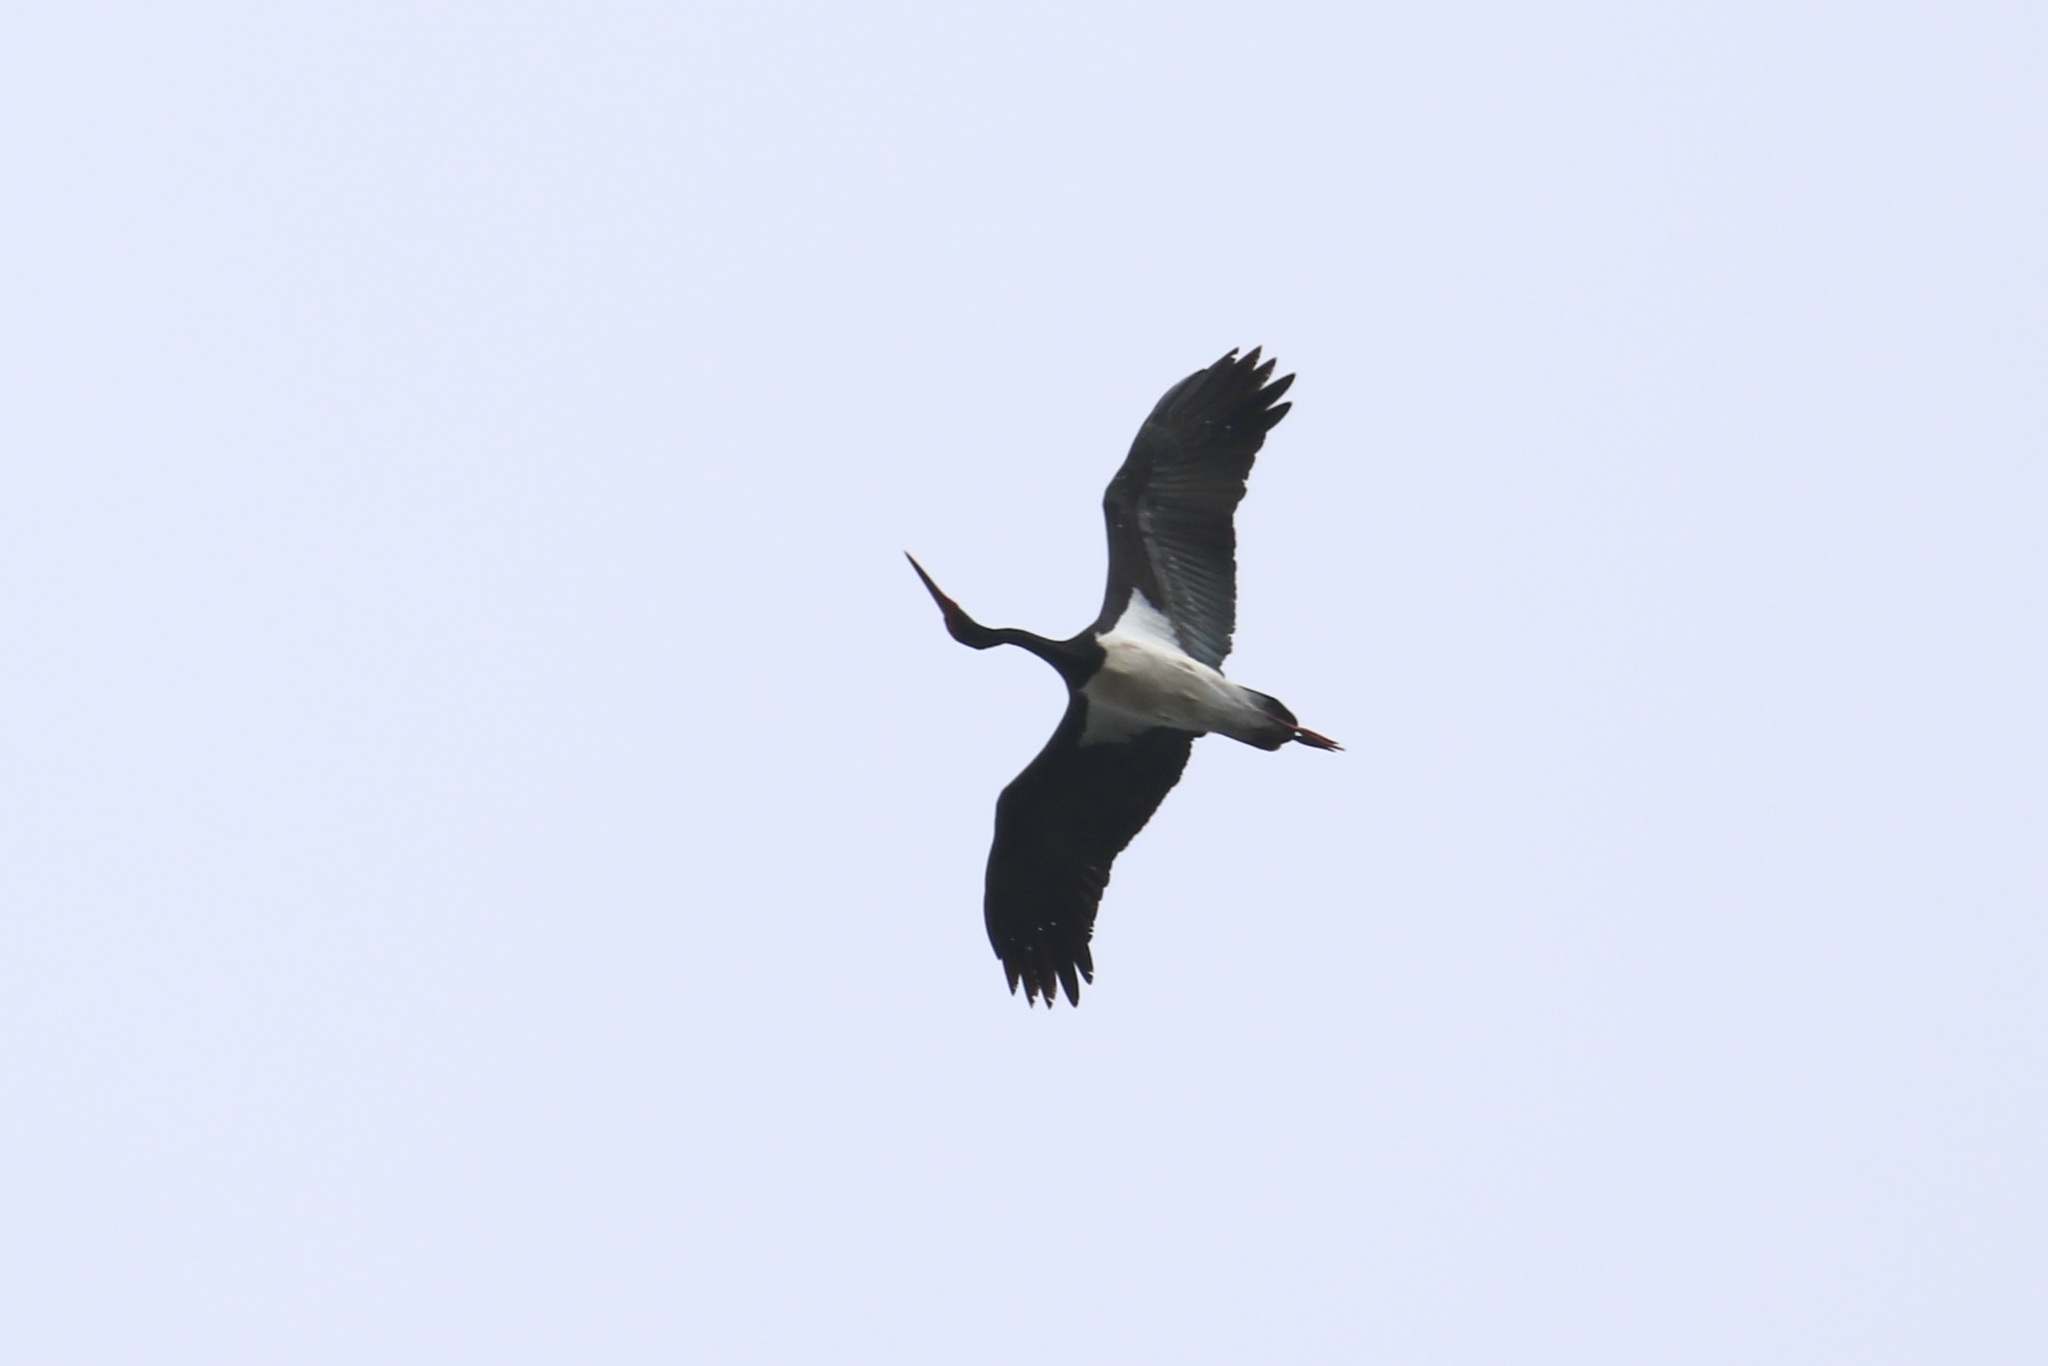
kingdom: Animalia
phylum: Chordata
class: Aves
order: Ciconiiformes
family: Ciconiidae
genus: Ciconia
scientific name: Ciconia nigra
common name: Black stork
